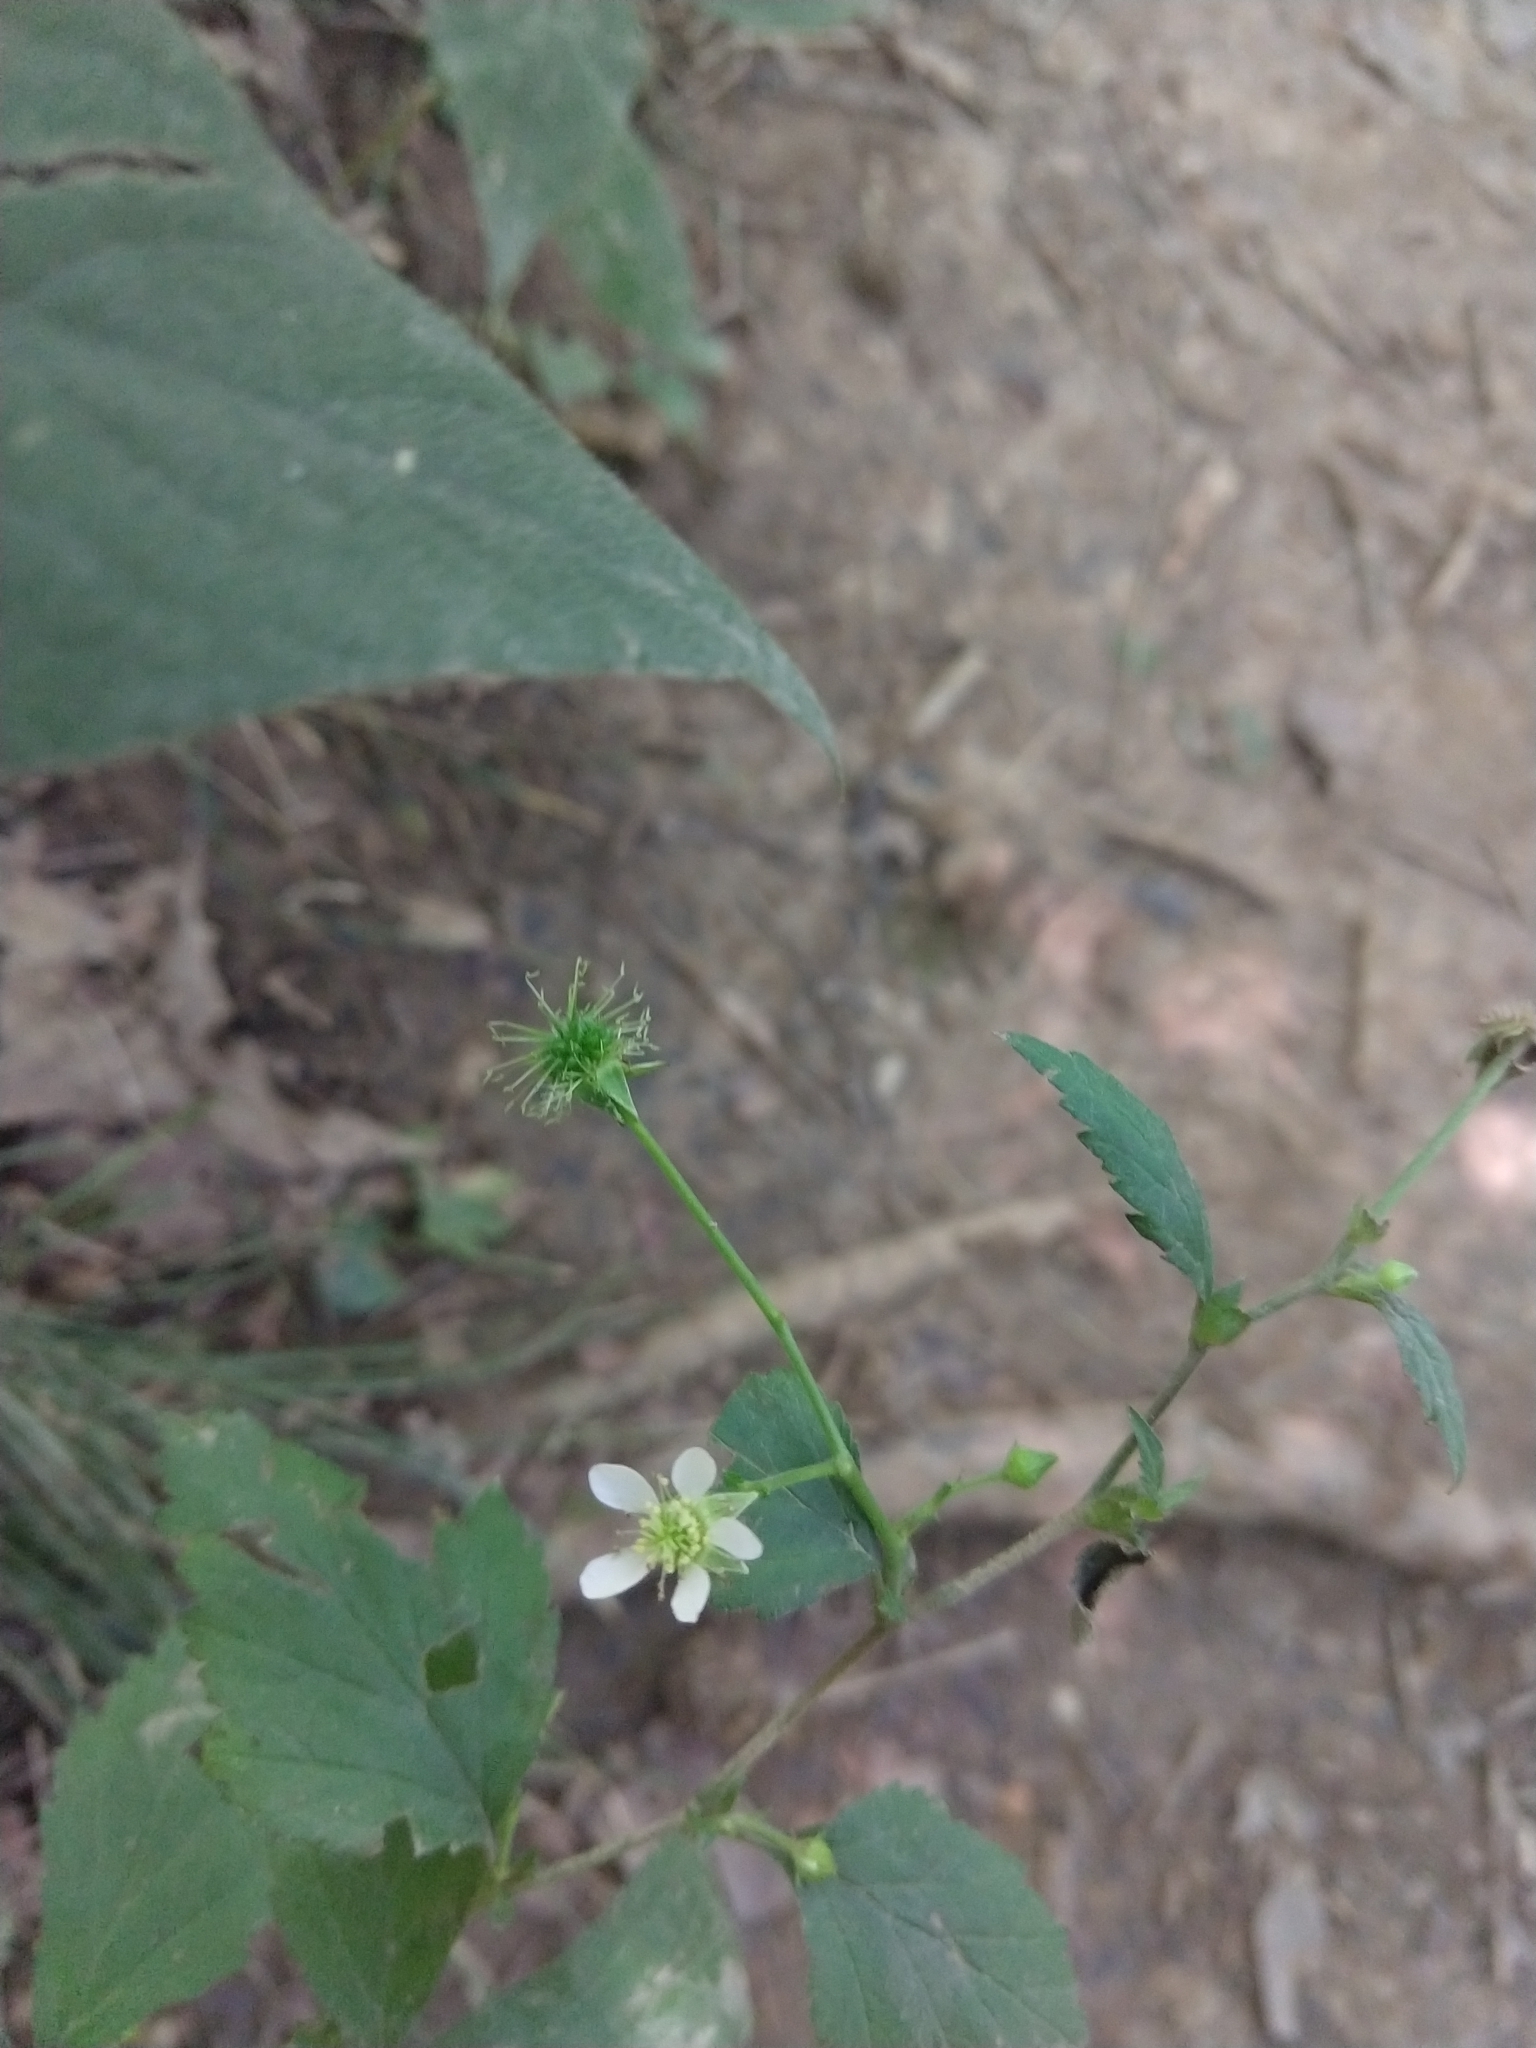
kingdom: Plantae
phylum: Tracheophyta
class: Magnoliopsida
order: Rosales
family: Rosaceae
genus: Geum
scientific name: Geum canadense
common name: White avens
